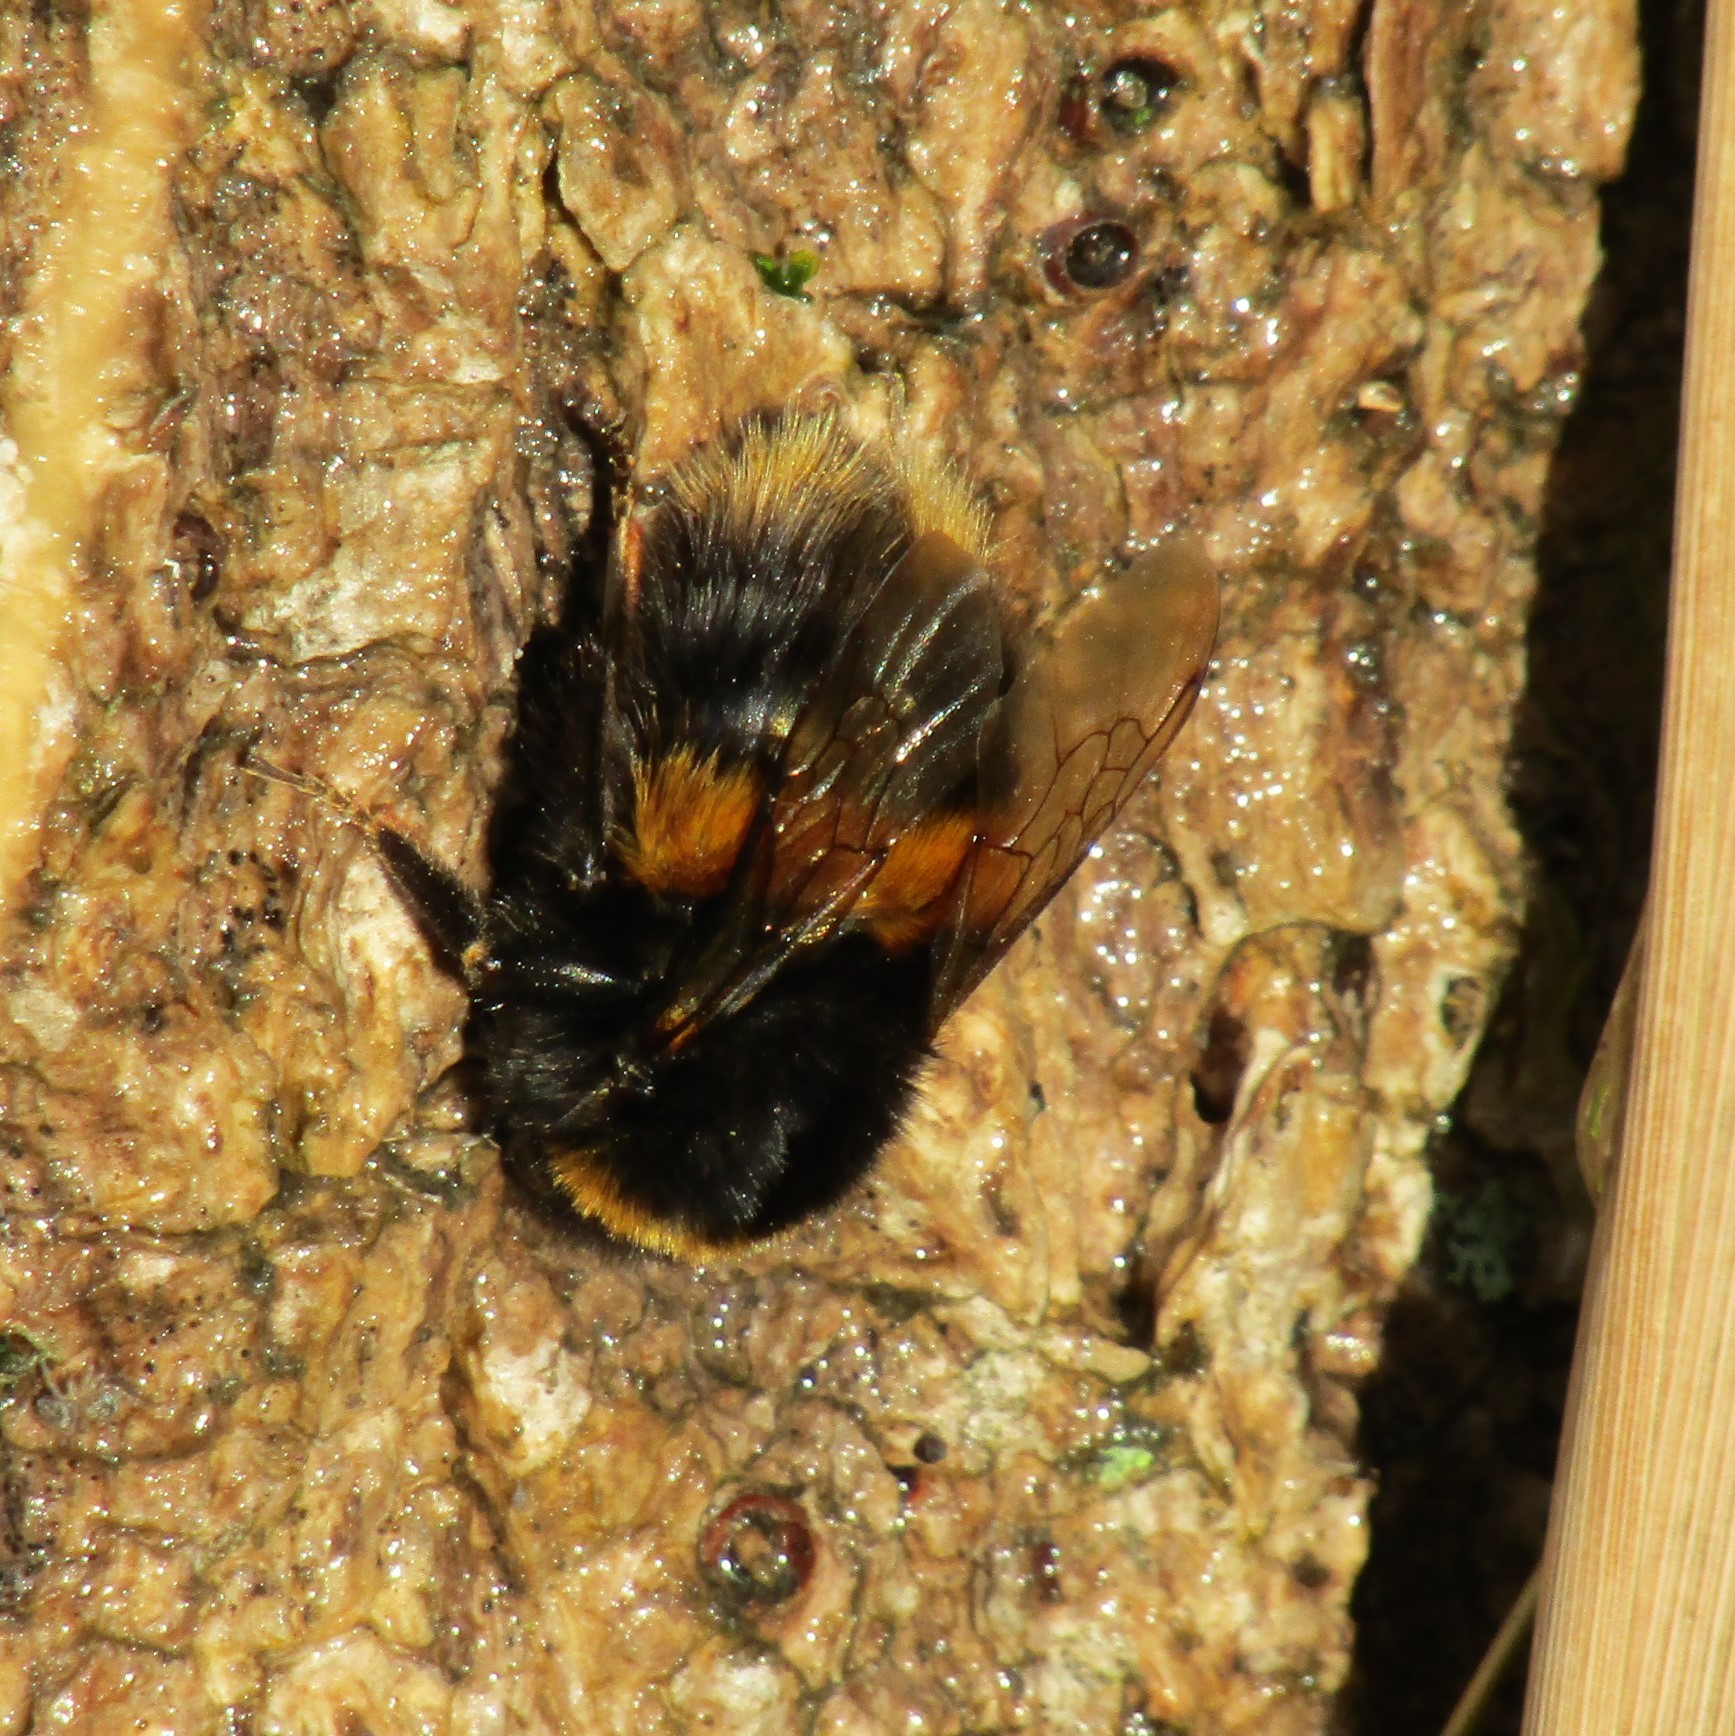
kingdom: Animalia
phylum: Arthropoda
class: Insecta
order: Hymenoptera
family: Apidae
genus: Bombus
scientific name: Bombus terrestris
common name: Buff-tailed bumblebee
